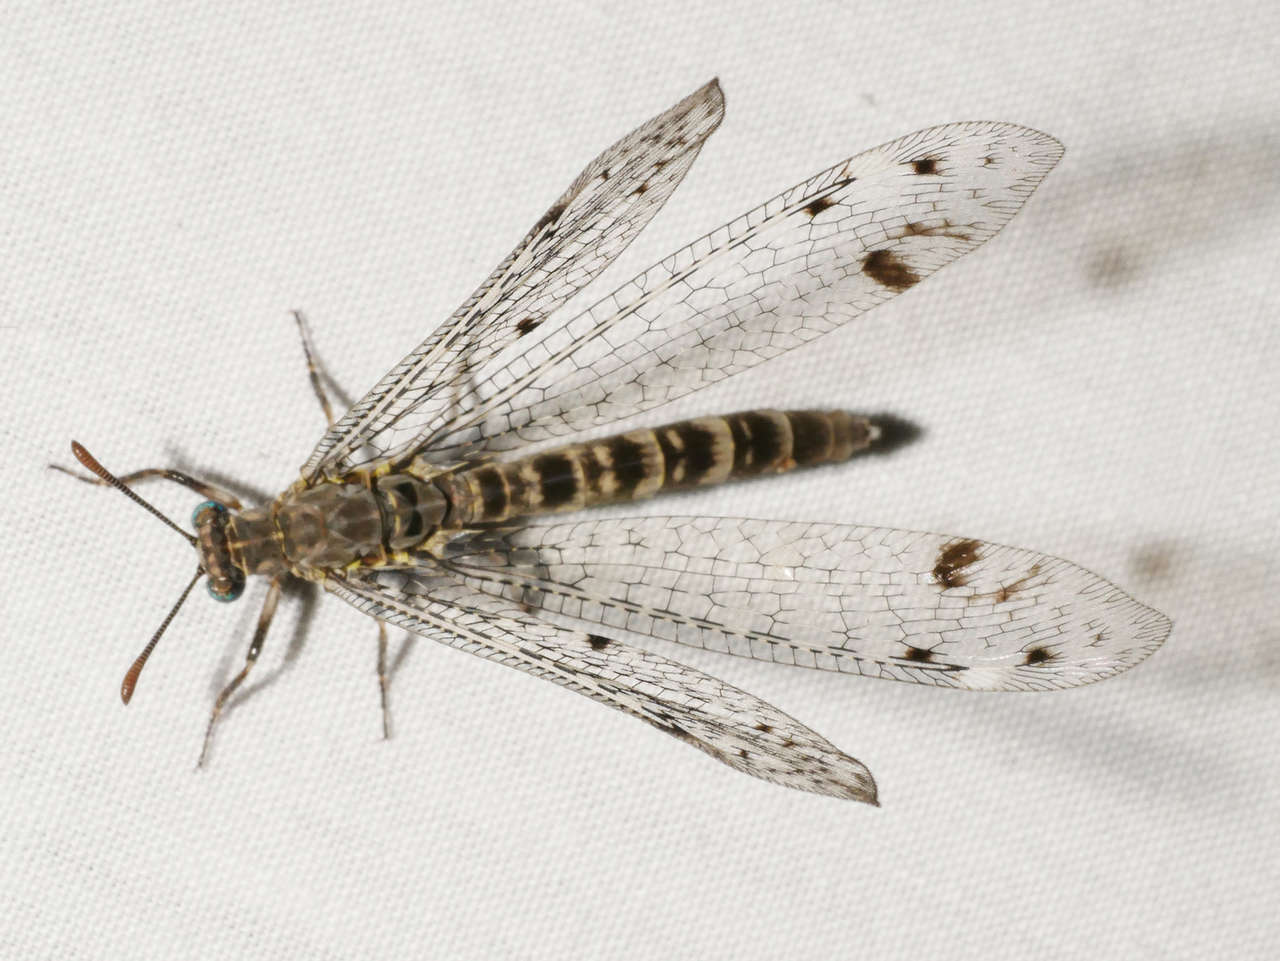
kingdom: Animalia
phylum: Arthropoda
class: Insecta
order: Neuroptera
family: Myrmeleontidae
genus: Bandidus
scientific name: Bandidus breviusculus
